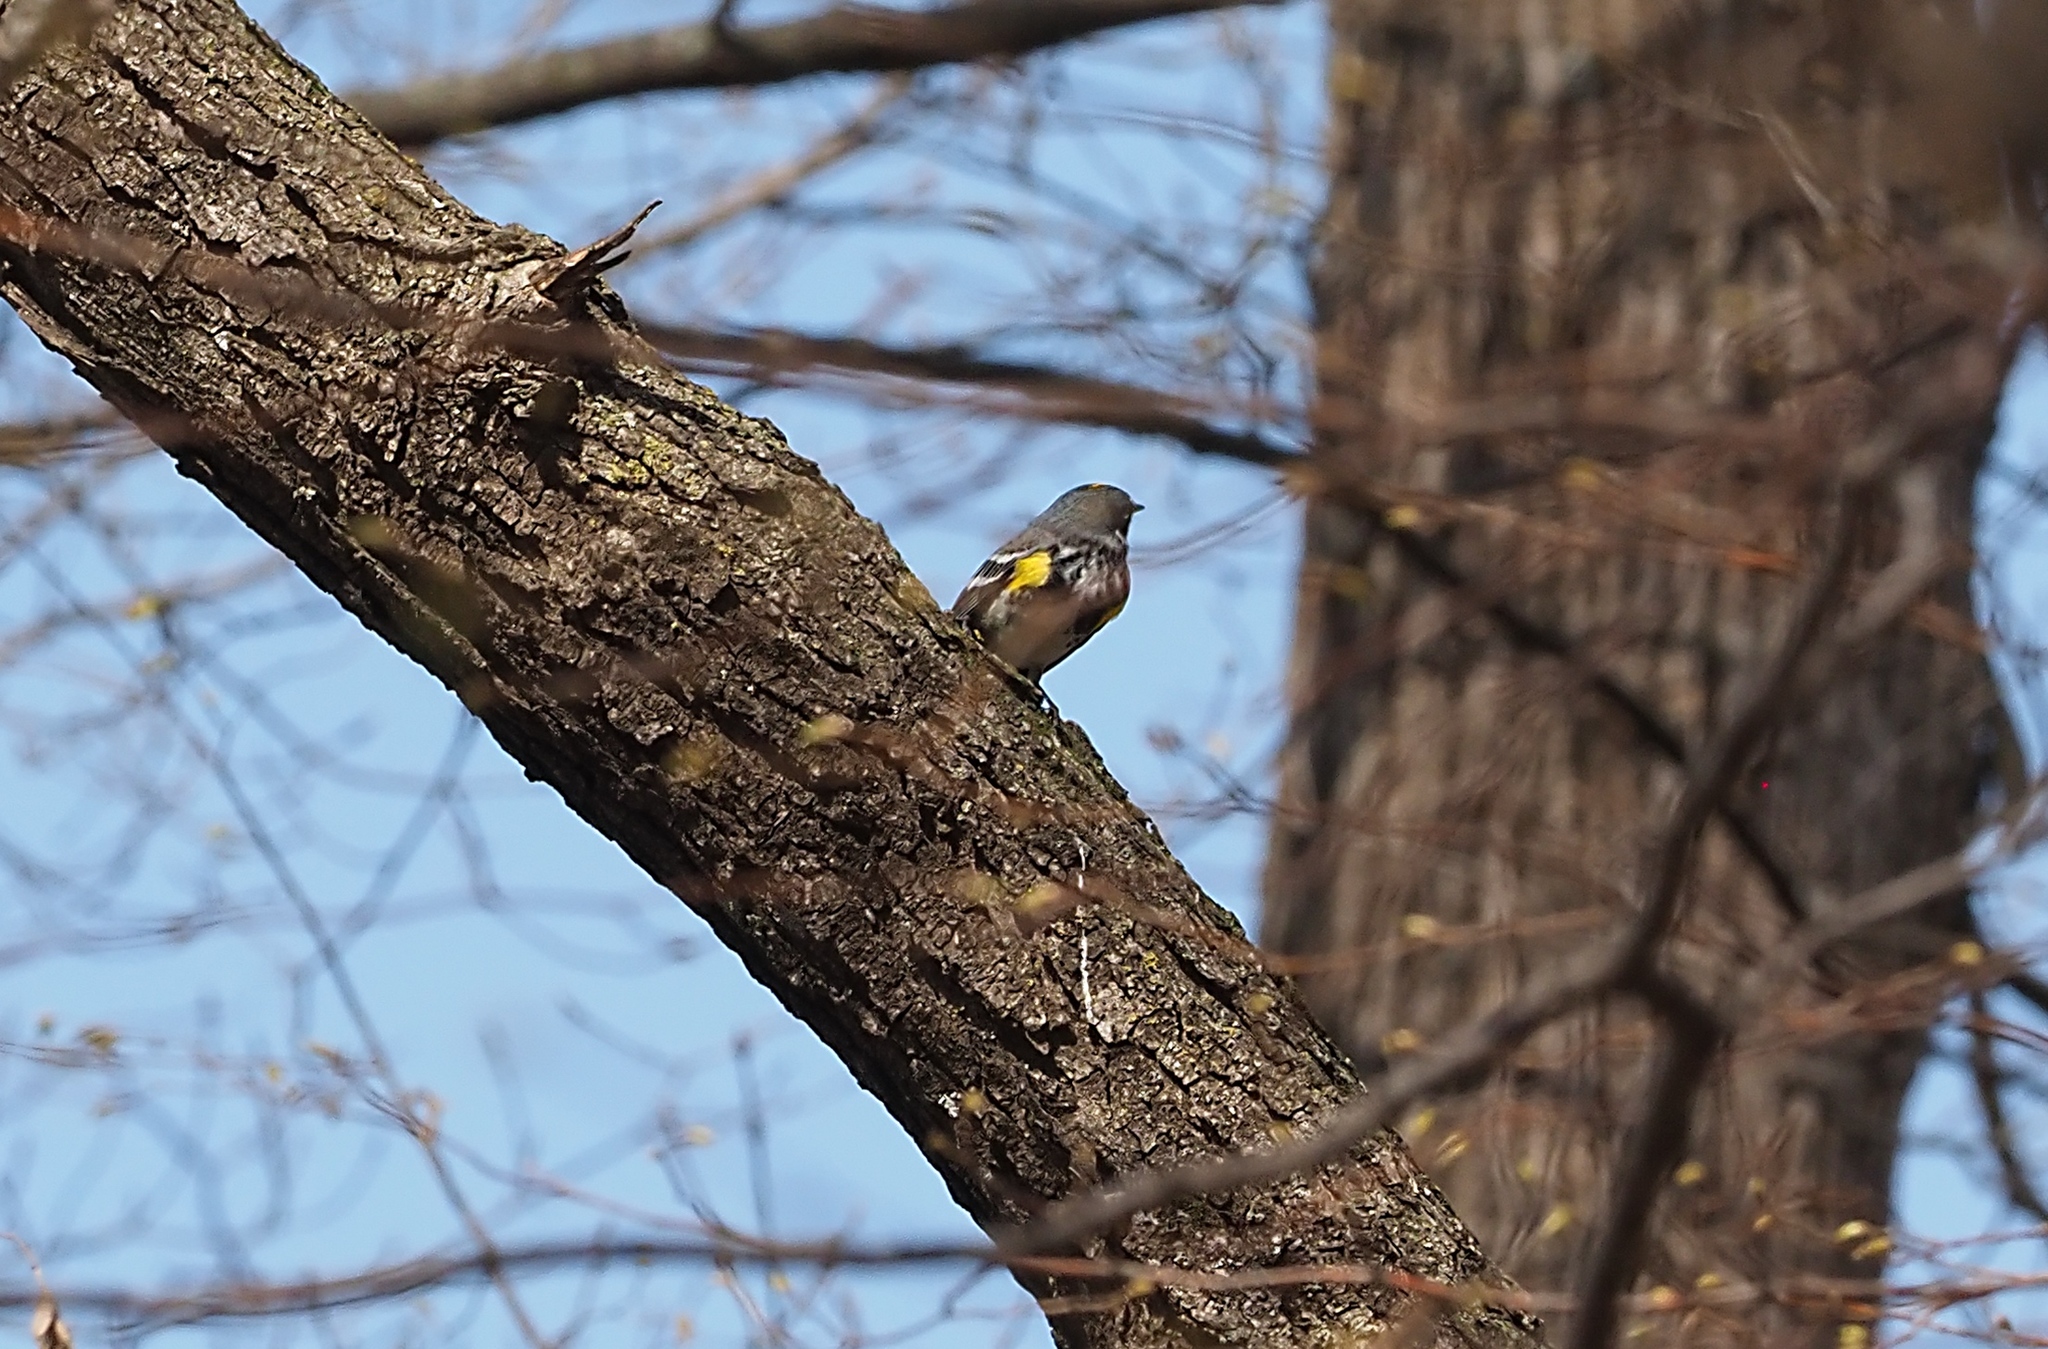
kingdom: Animalia
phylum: Chordata
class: Aves
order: Passeriformes
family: Parulidae
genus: Setophaga
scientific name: Setophaga coronata
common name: Myrtle warbler
